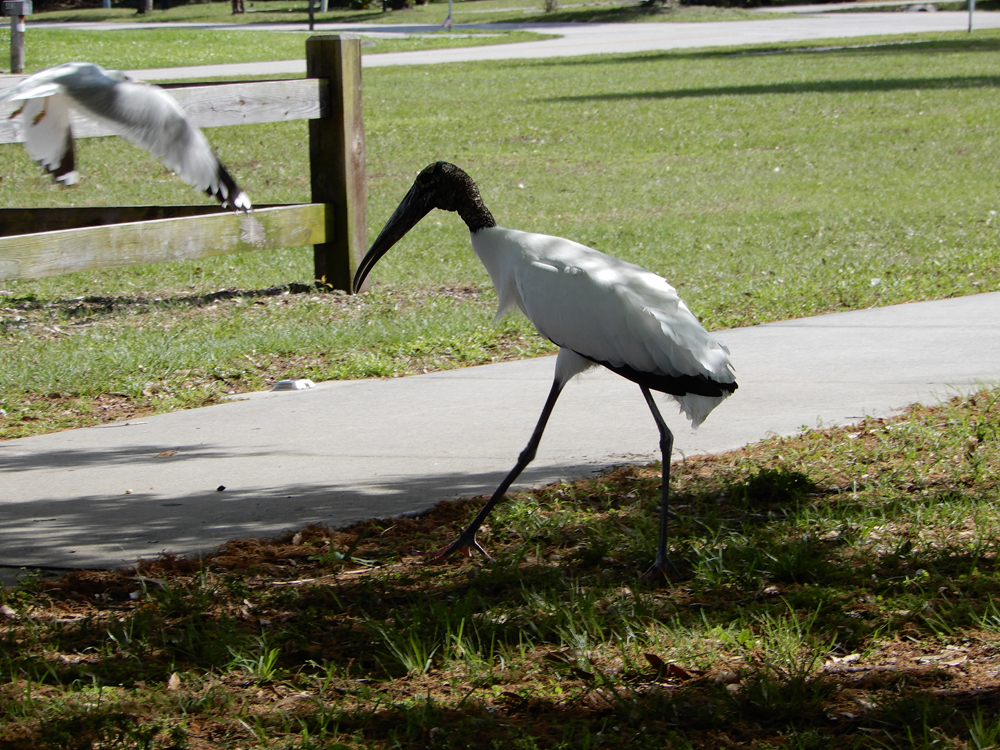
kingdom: Animalia
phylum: Chordata
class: Aves
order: Ciconiiformes
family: Ciconiidae
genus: Mycteria
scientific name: Mycteria americana
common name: Wood stork
